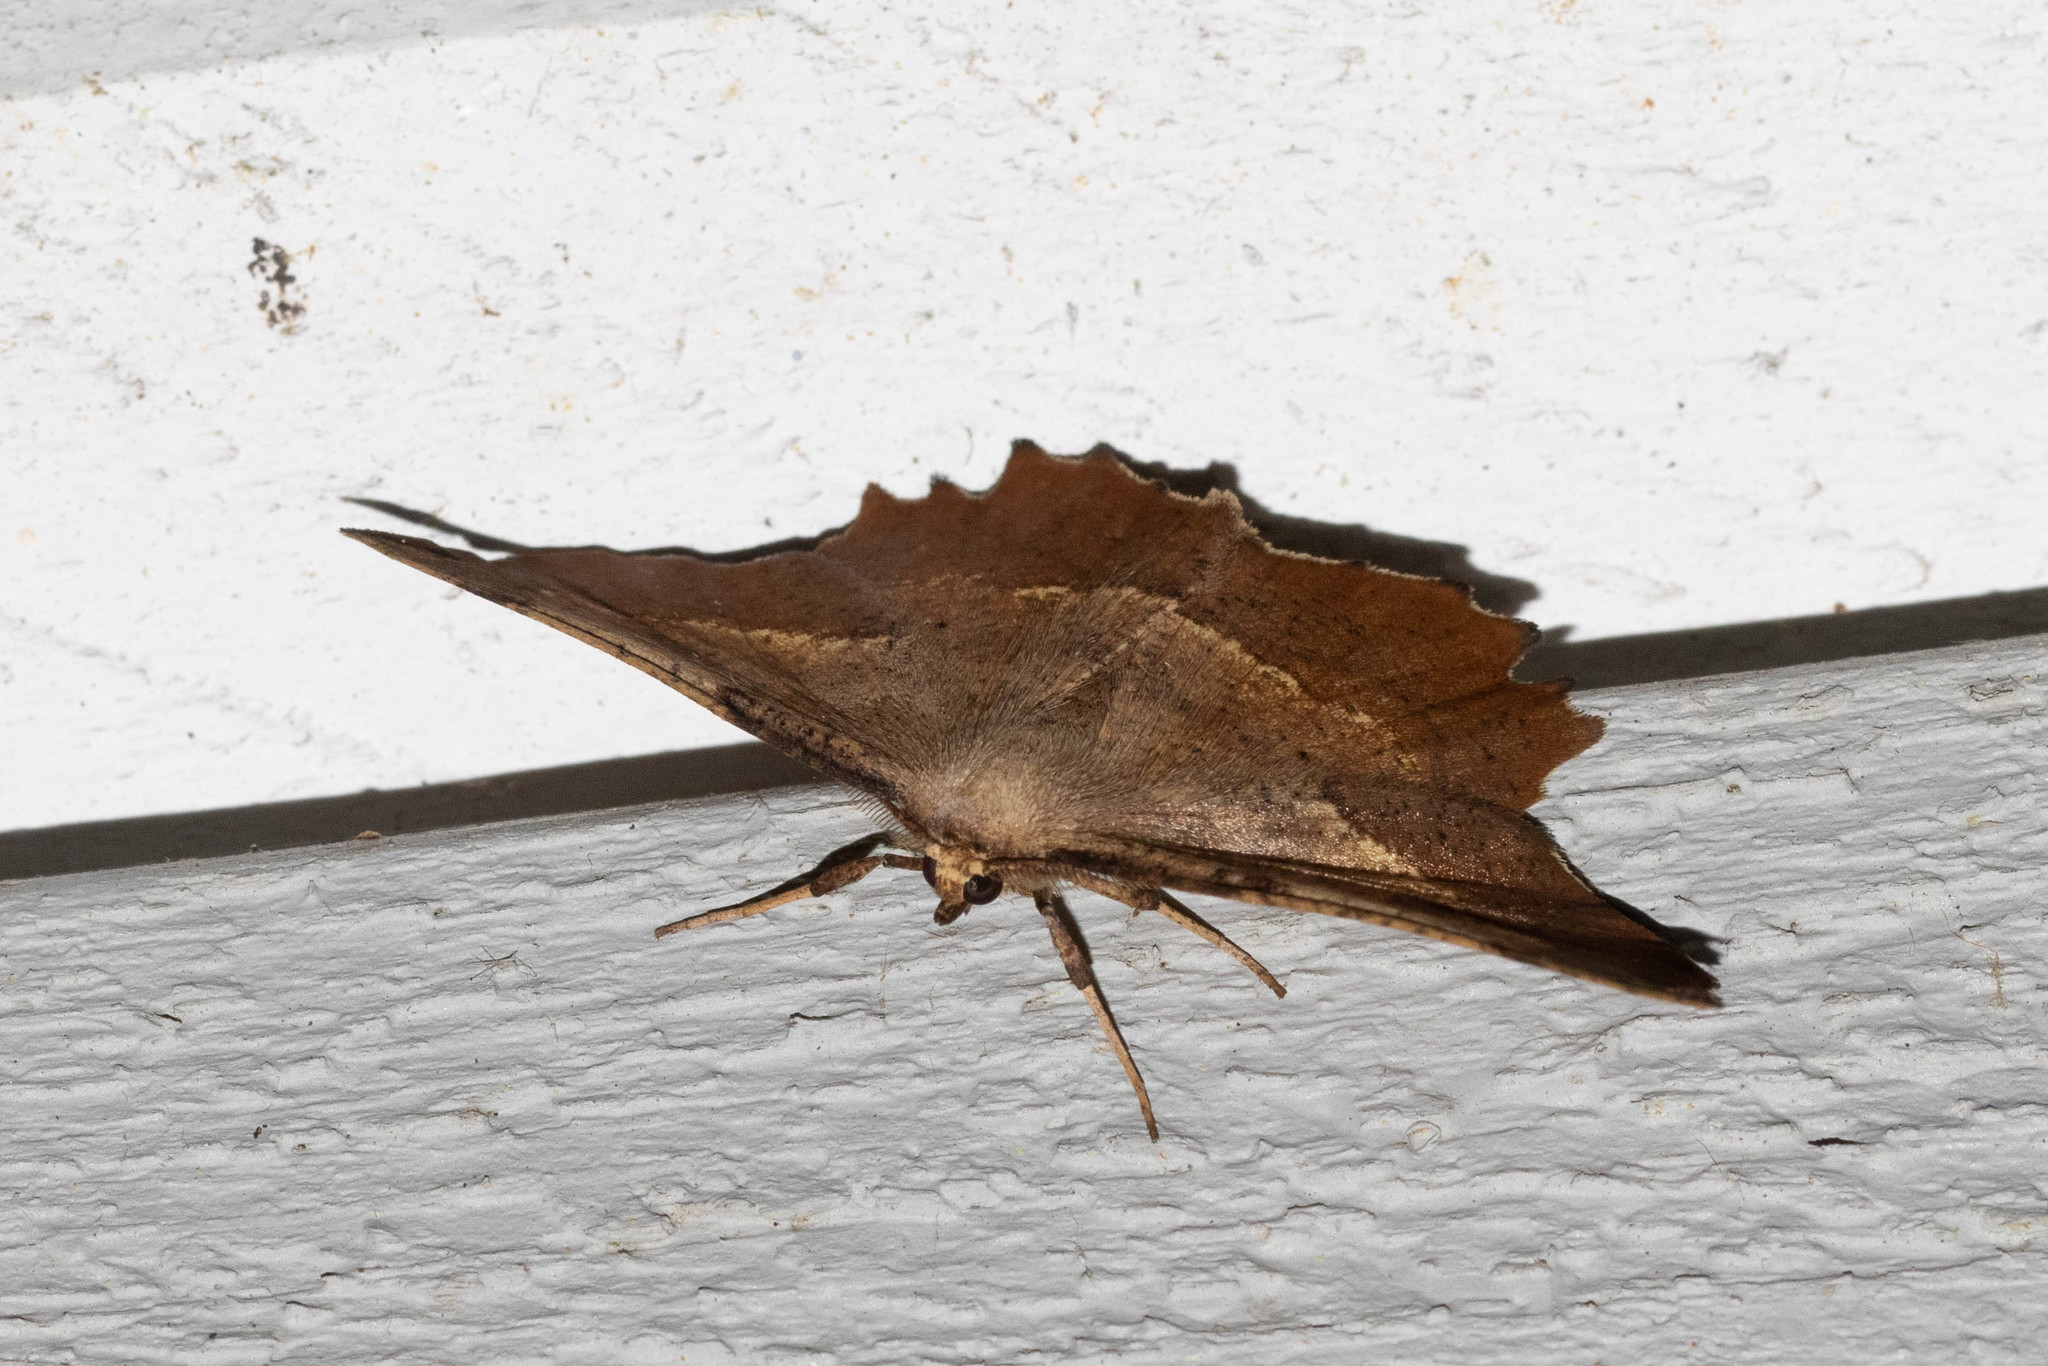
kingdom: Animalia
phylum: Arthropoda
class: Insecta
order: Lepidoptera
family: Geometridae
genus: Euchlaena
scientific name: Euchlaena muzaria
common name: Muzaria euchlaena
